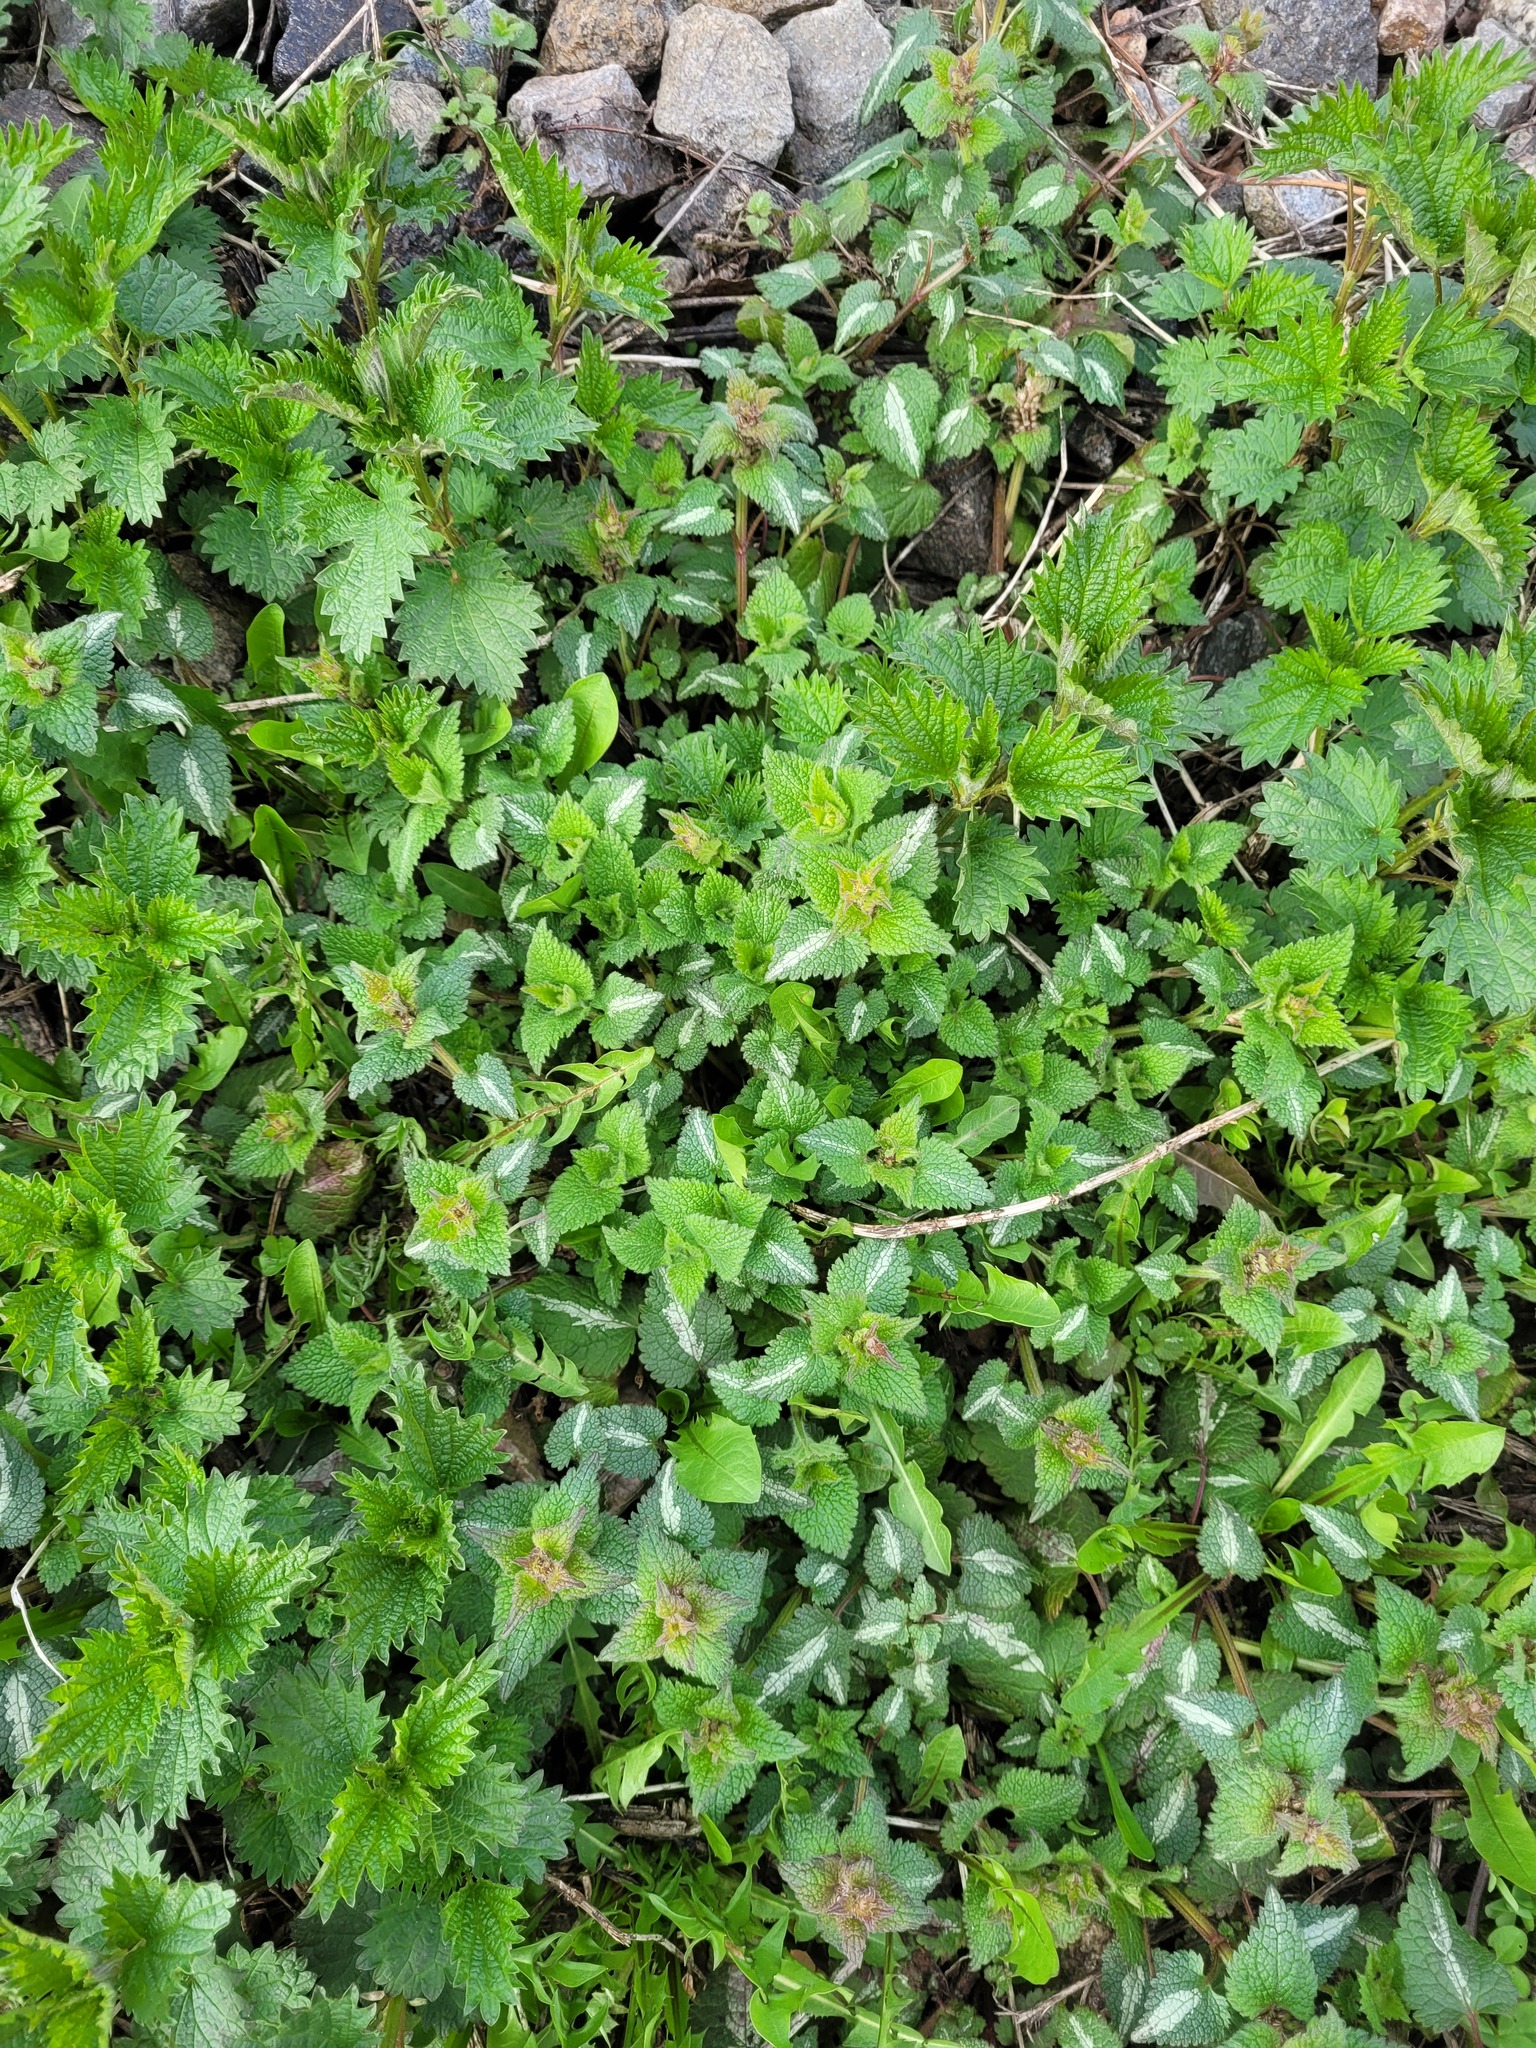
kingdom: Plantae
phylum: Tracheophyta
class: Magnoliopsida
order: Lamiales
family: Lamiaceae
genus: Lamium
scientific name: Lamium maculatum
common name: Spotted dead-nettle
